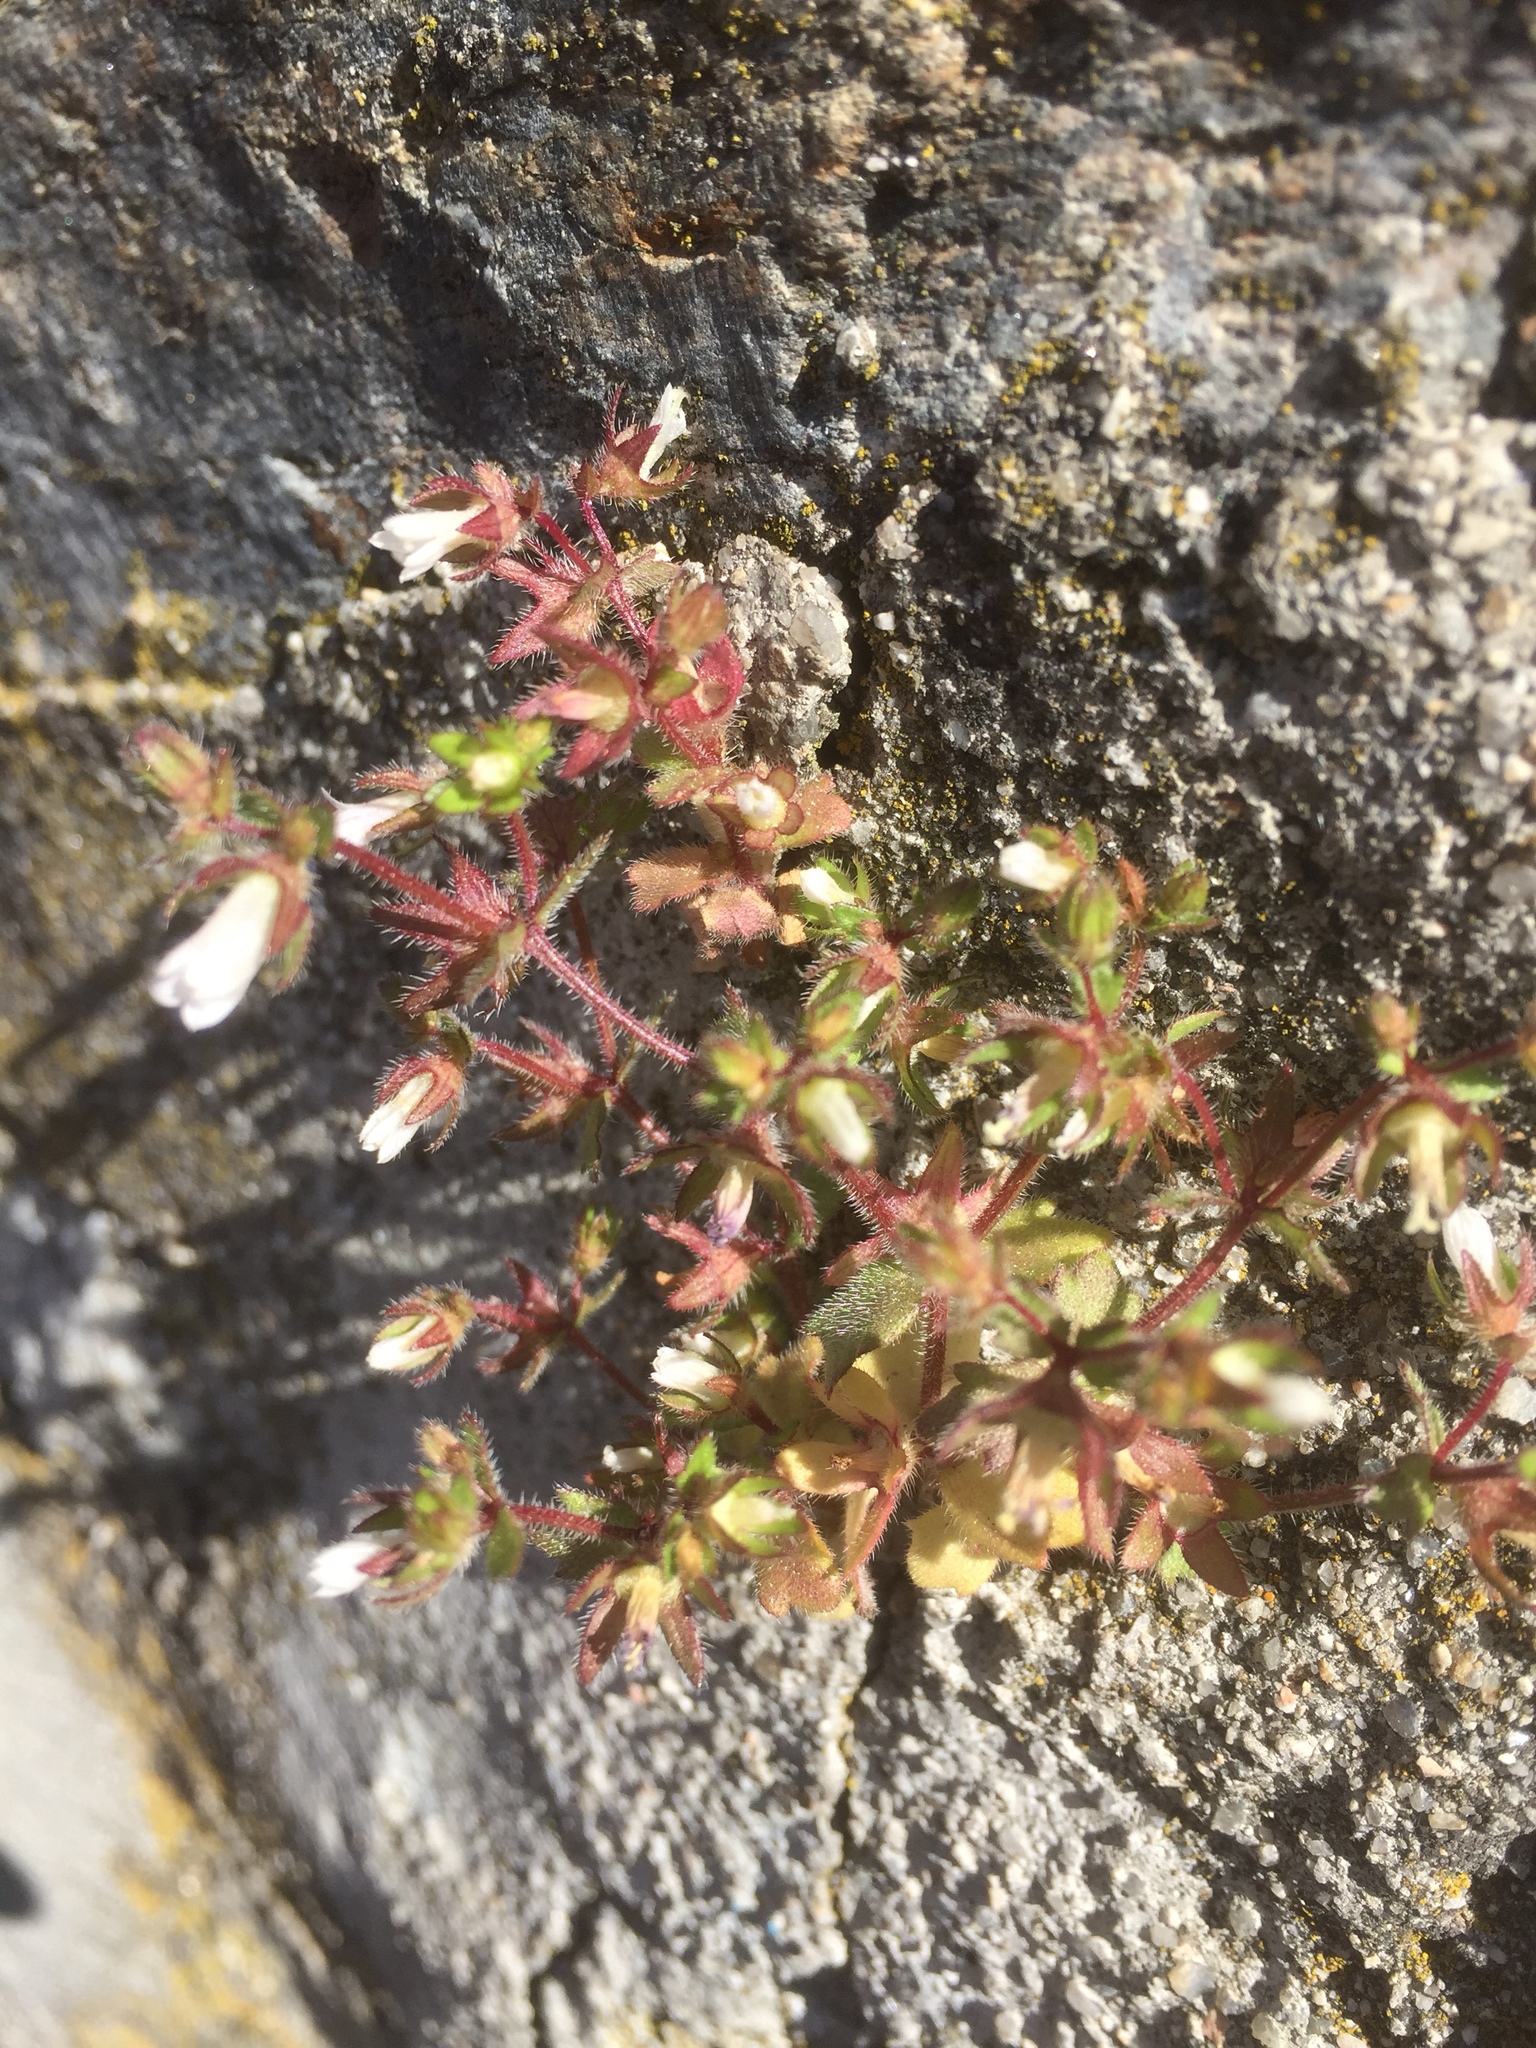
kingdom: Plantae
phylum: Tracheophyta
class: Magnoliopsida
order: Asterales
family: Campanulaceae
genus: Campanula
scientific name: Campanula erinus
